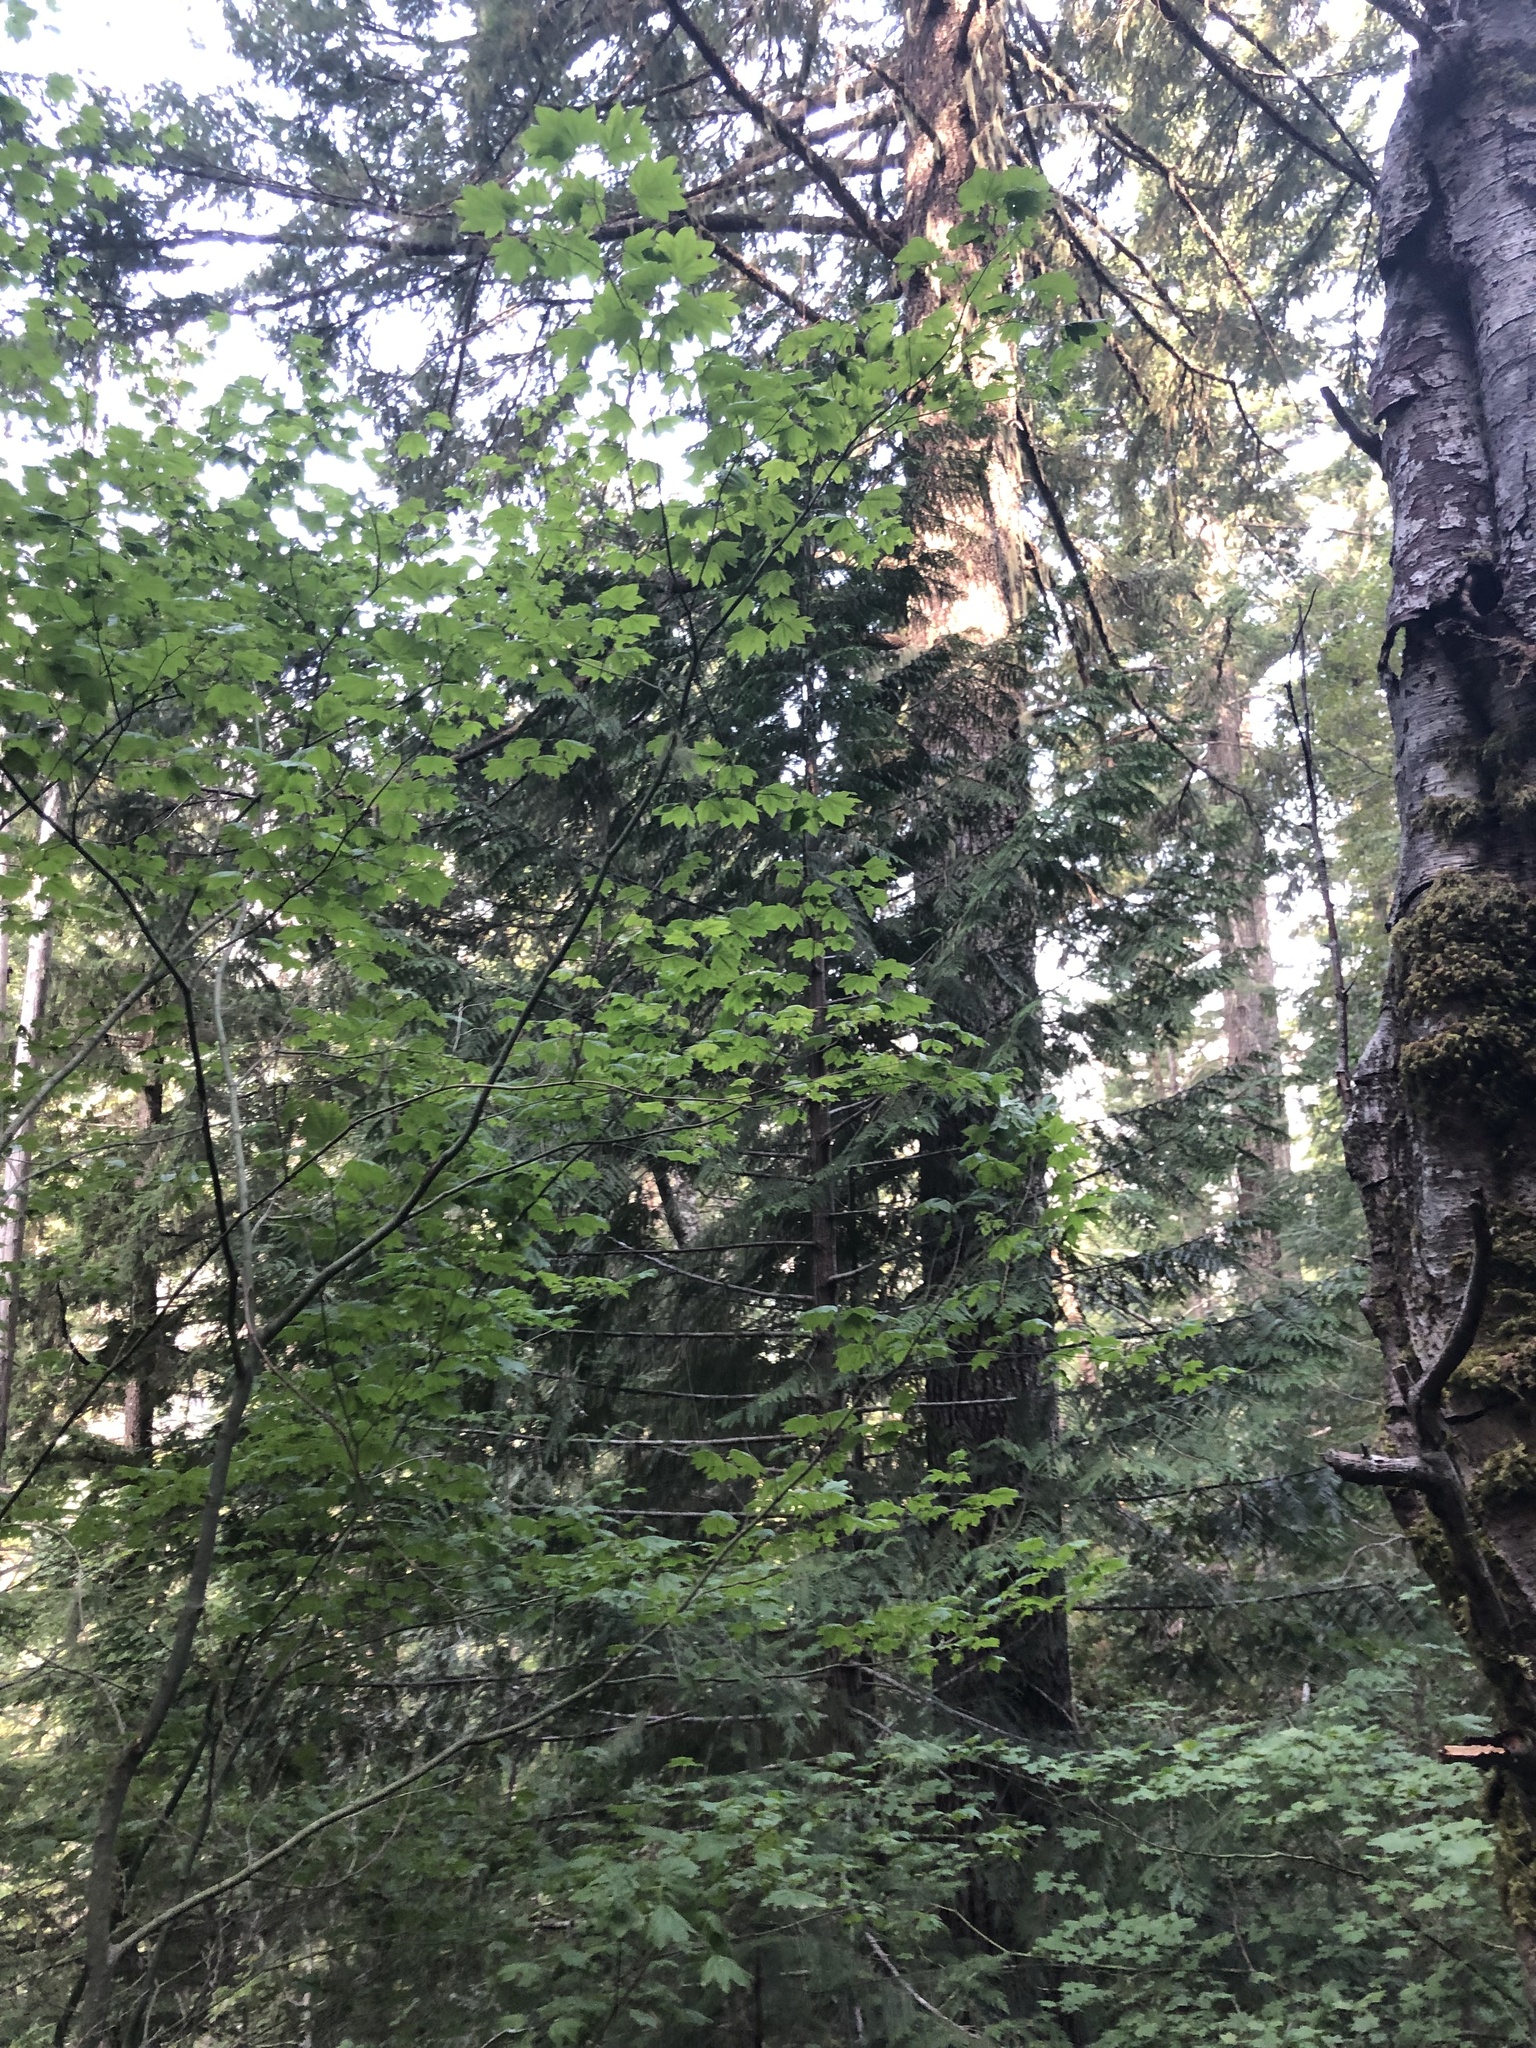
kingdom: Plantae
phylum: Tracheophyta
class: Magnoliopsida
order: Sapindales
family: Sapindaceae
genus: Acer
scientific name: Acer circinatum
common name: Vine maple
